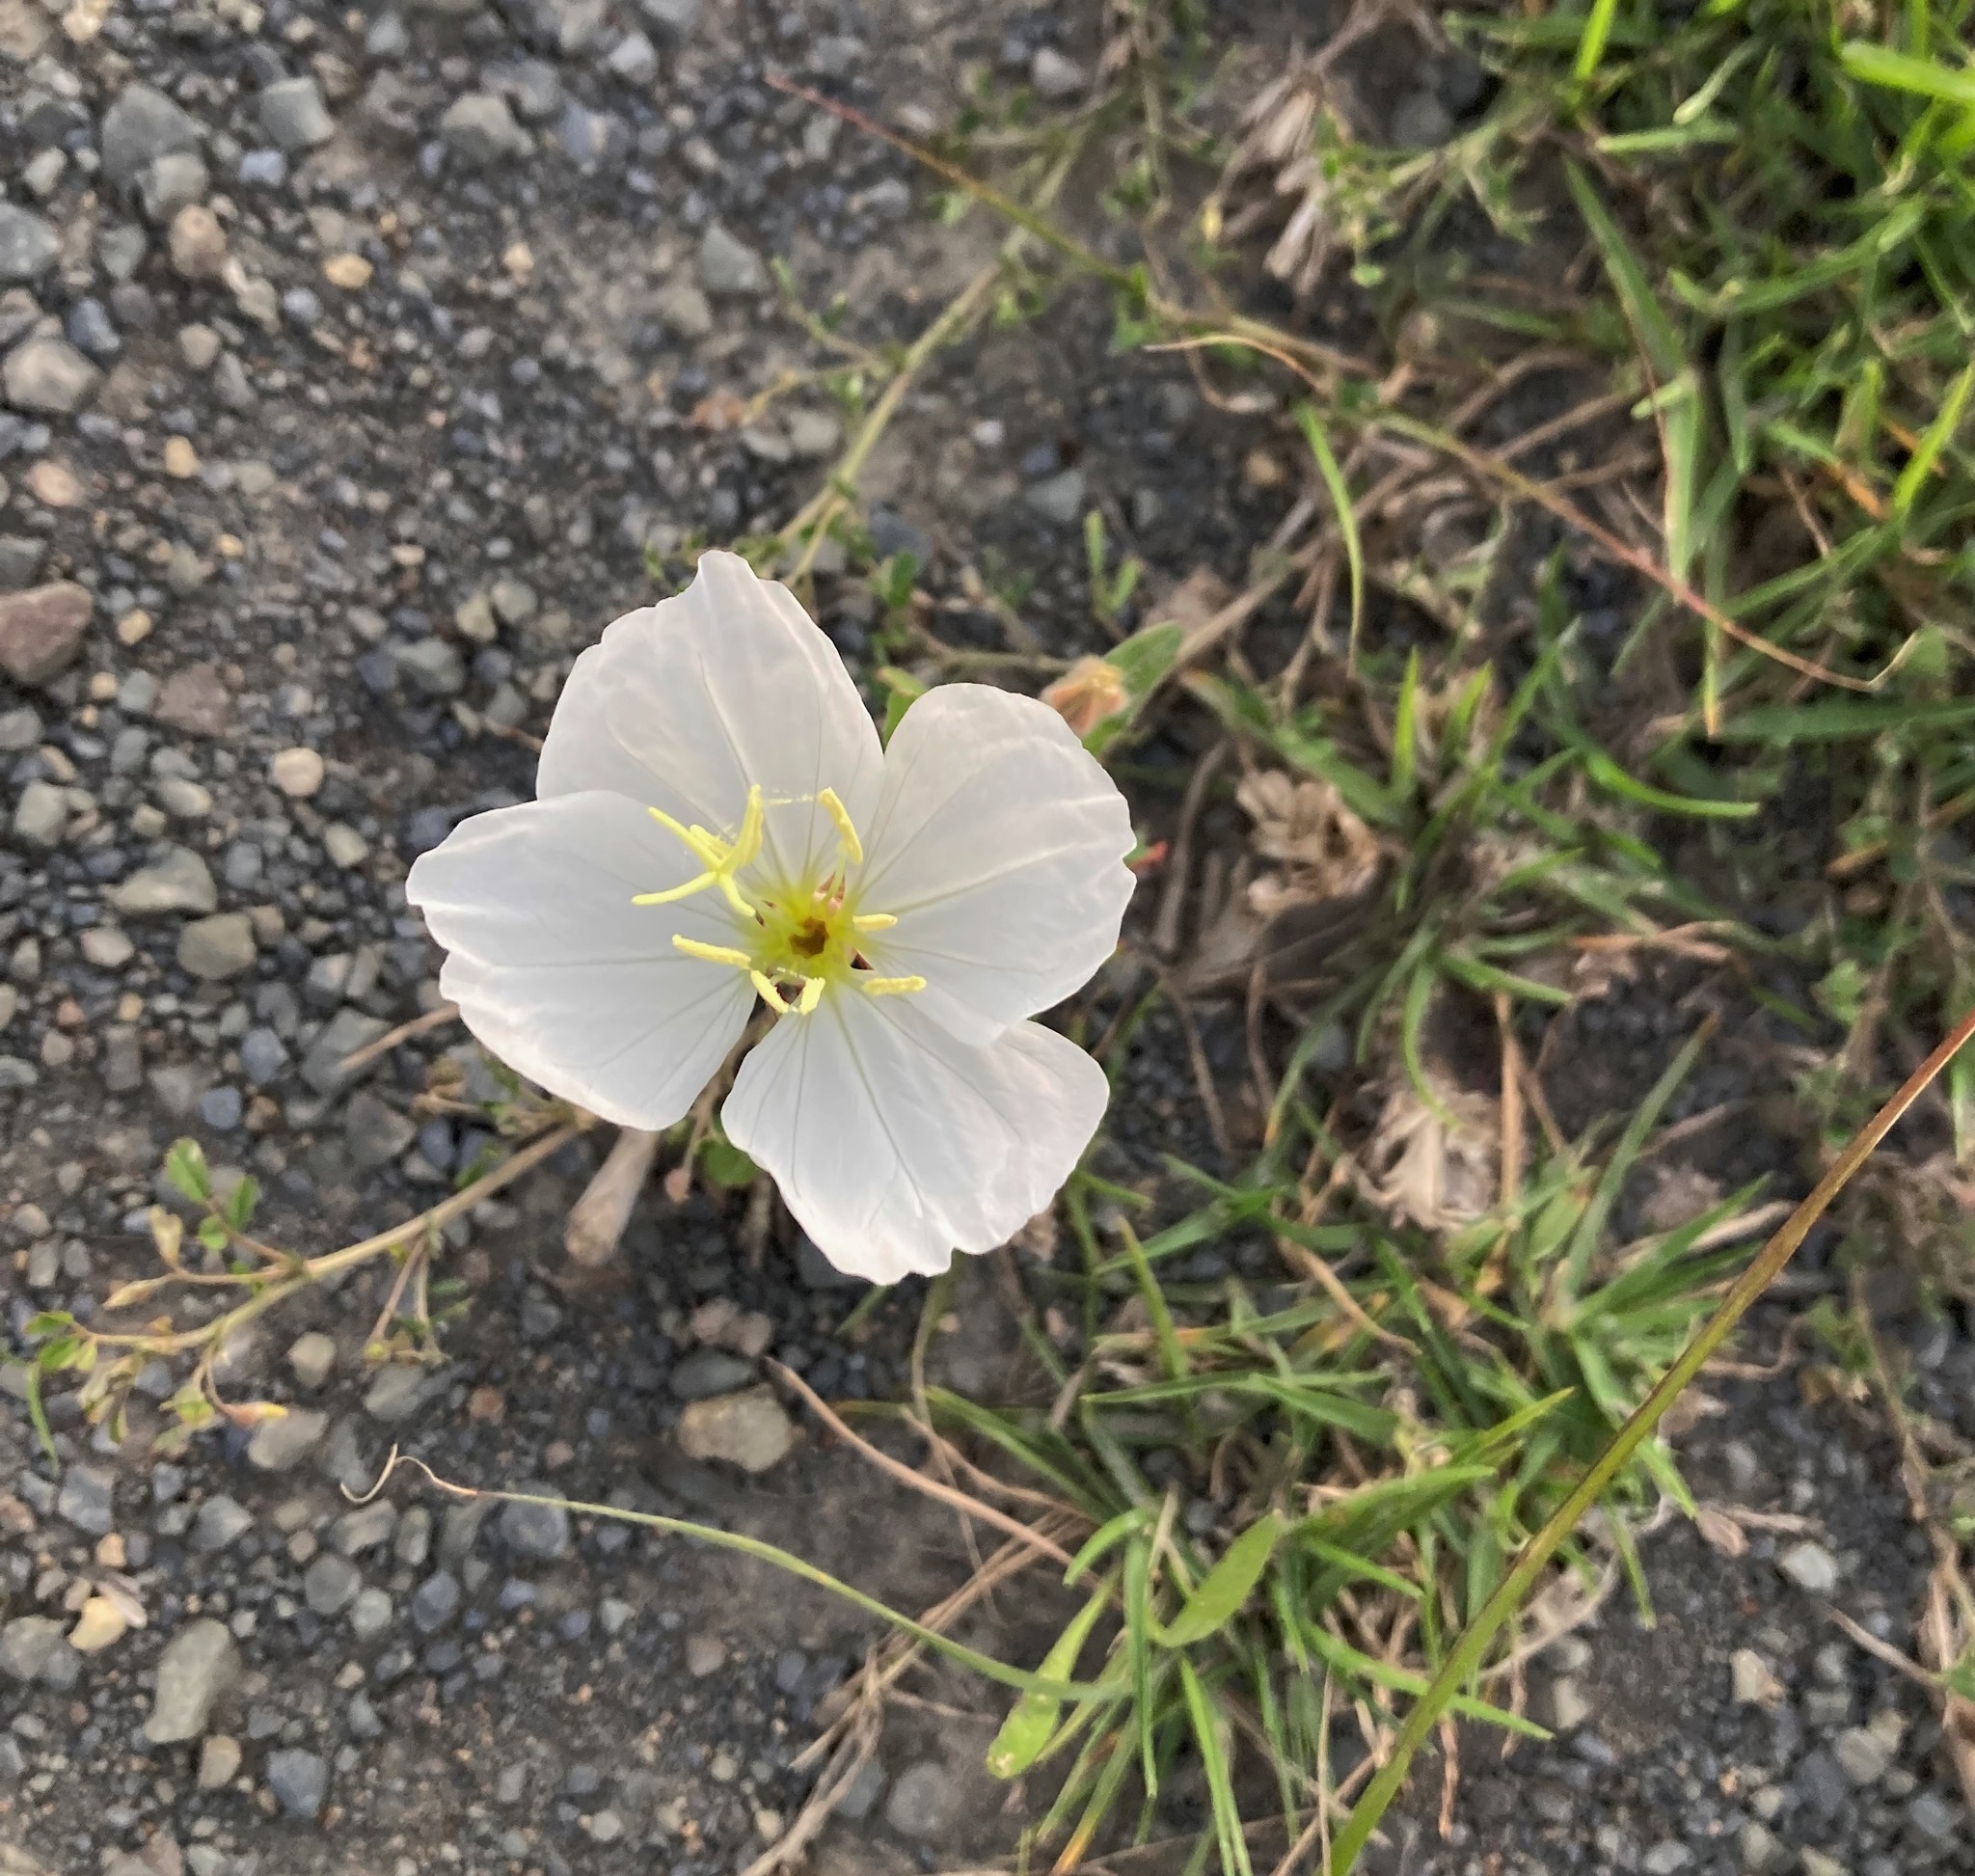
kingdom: Plantae
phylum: Tracheophyta
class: Magnoliopsida
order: Myrtales
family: Onagraceae
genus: Oenothera
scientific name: Oenothera tetraptera
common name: Four-wing evening-primrose
